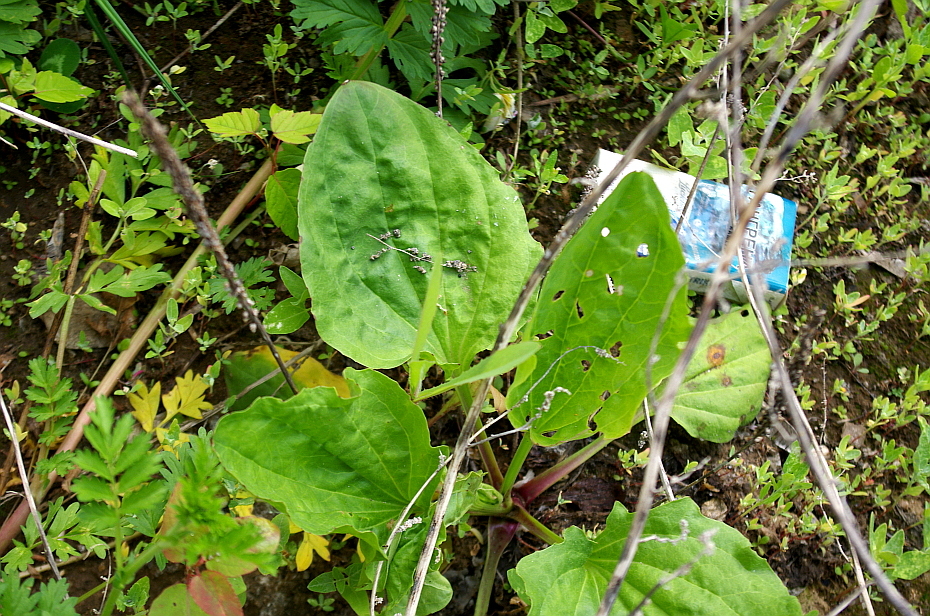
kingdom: Plantae
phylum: Tracheophyta
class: Magnoliopsida
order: Lamiales
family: Plantaginaceae
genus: Plantago
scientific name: Plantago major
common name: Common plantain
